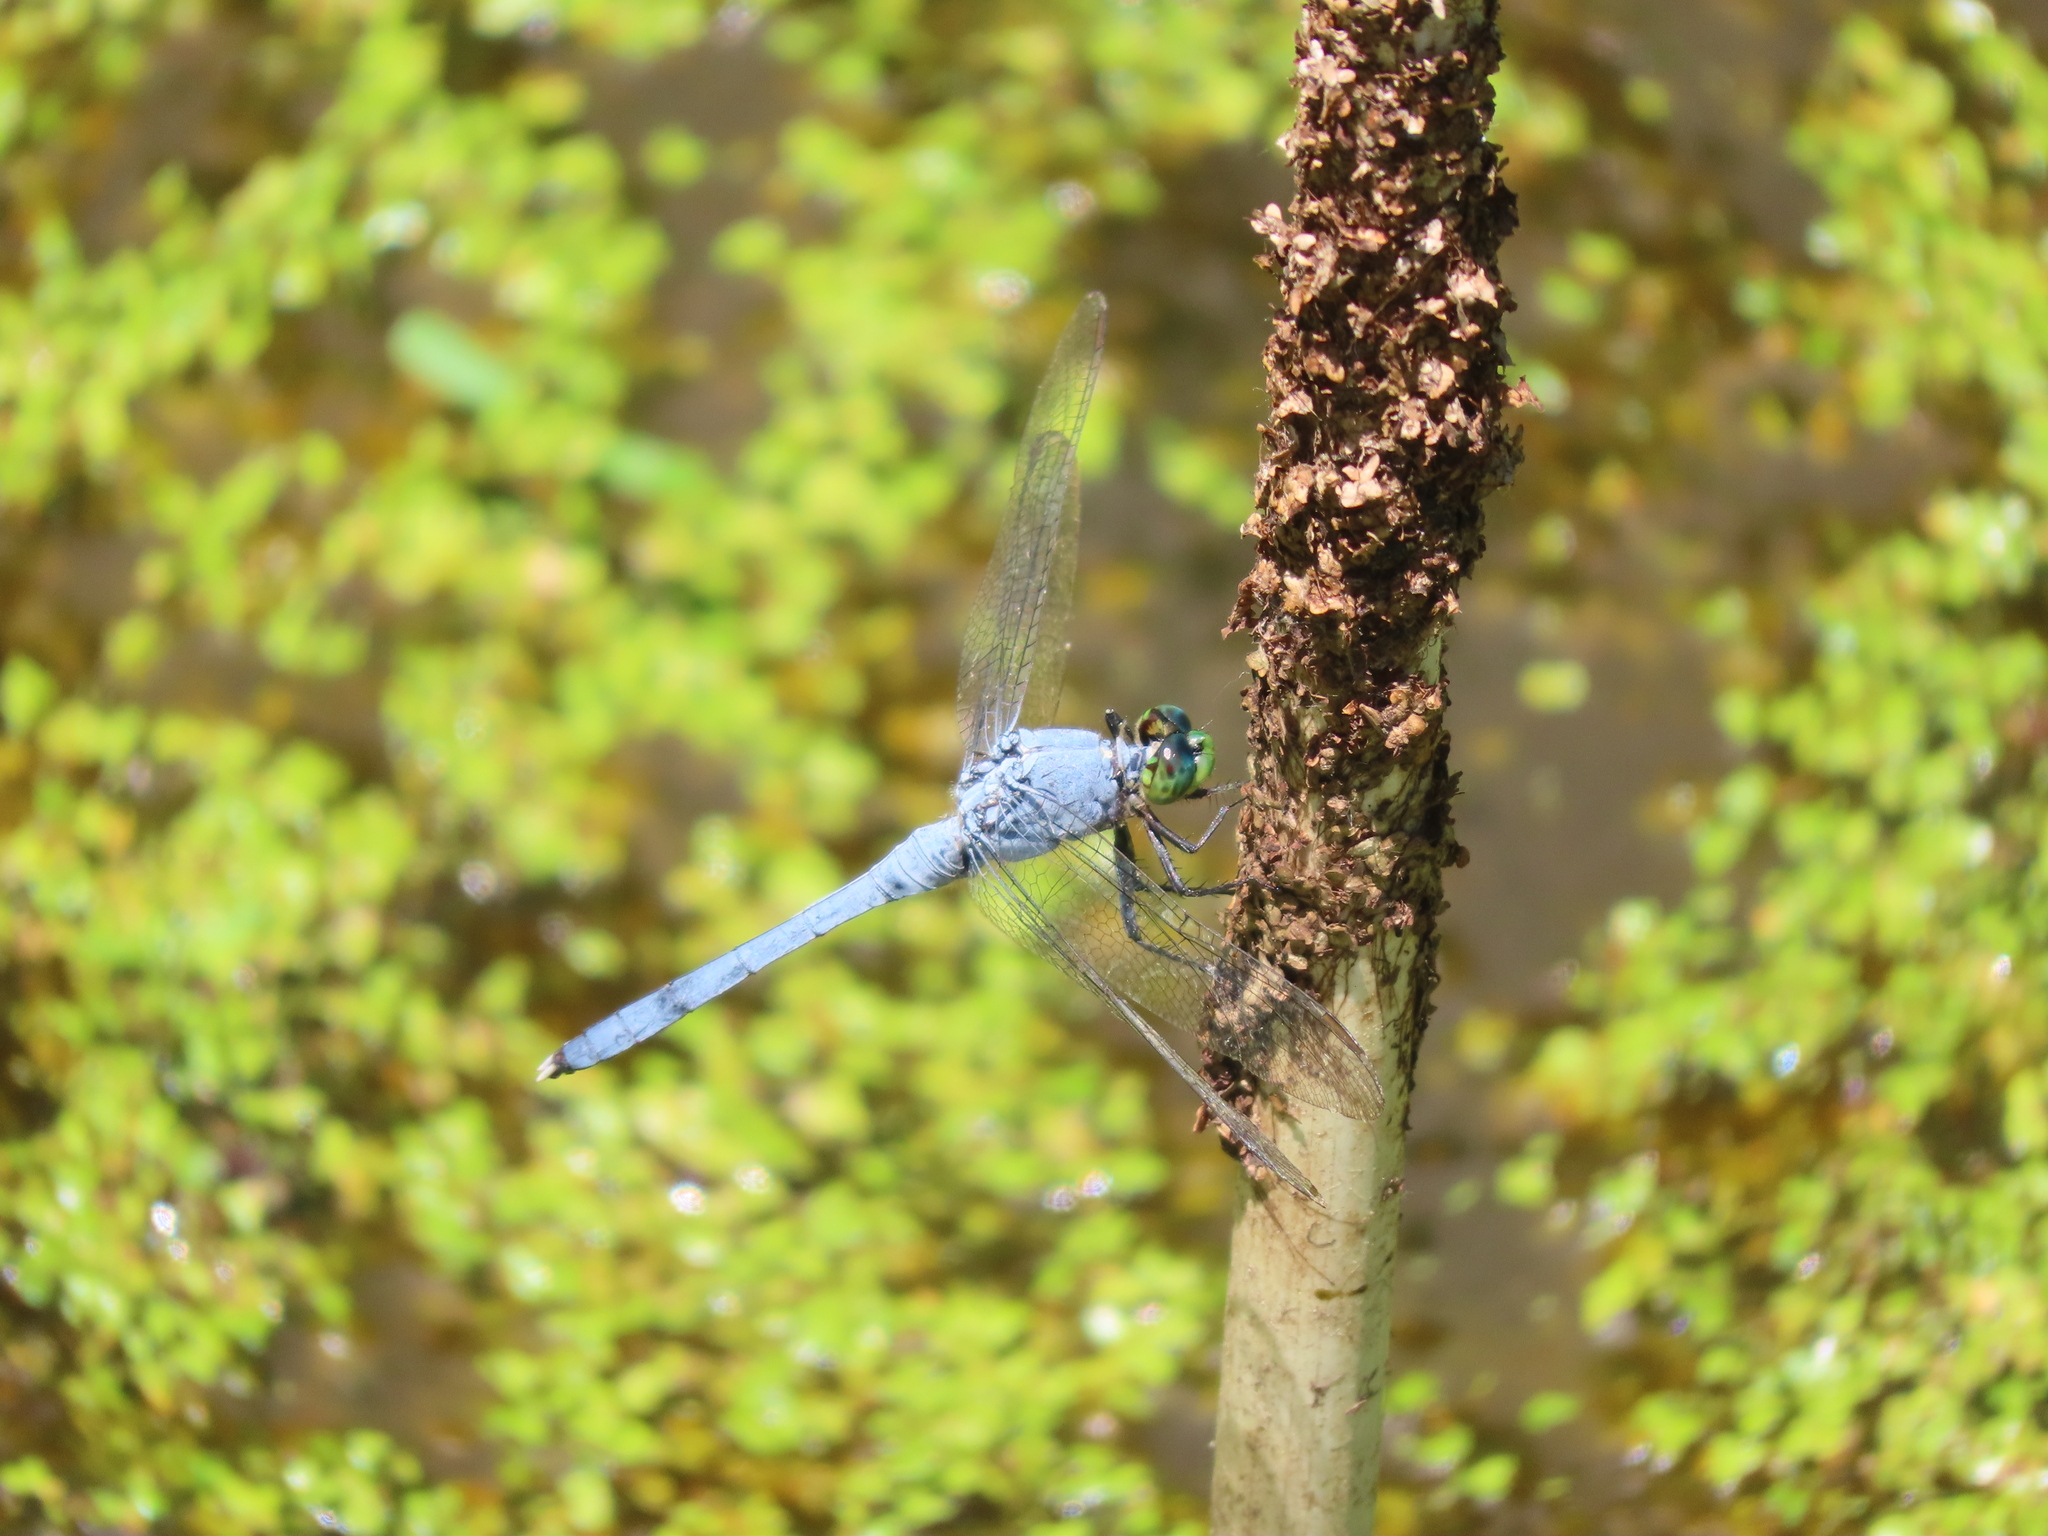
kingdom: Animalia
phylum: Arthropoda
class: Insecta
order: Odonata
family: Libellulidae
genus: Erythemis
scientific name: Erythemis simplicicollis
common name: Eastern pondhawk
